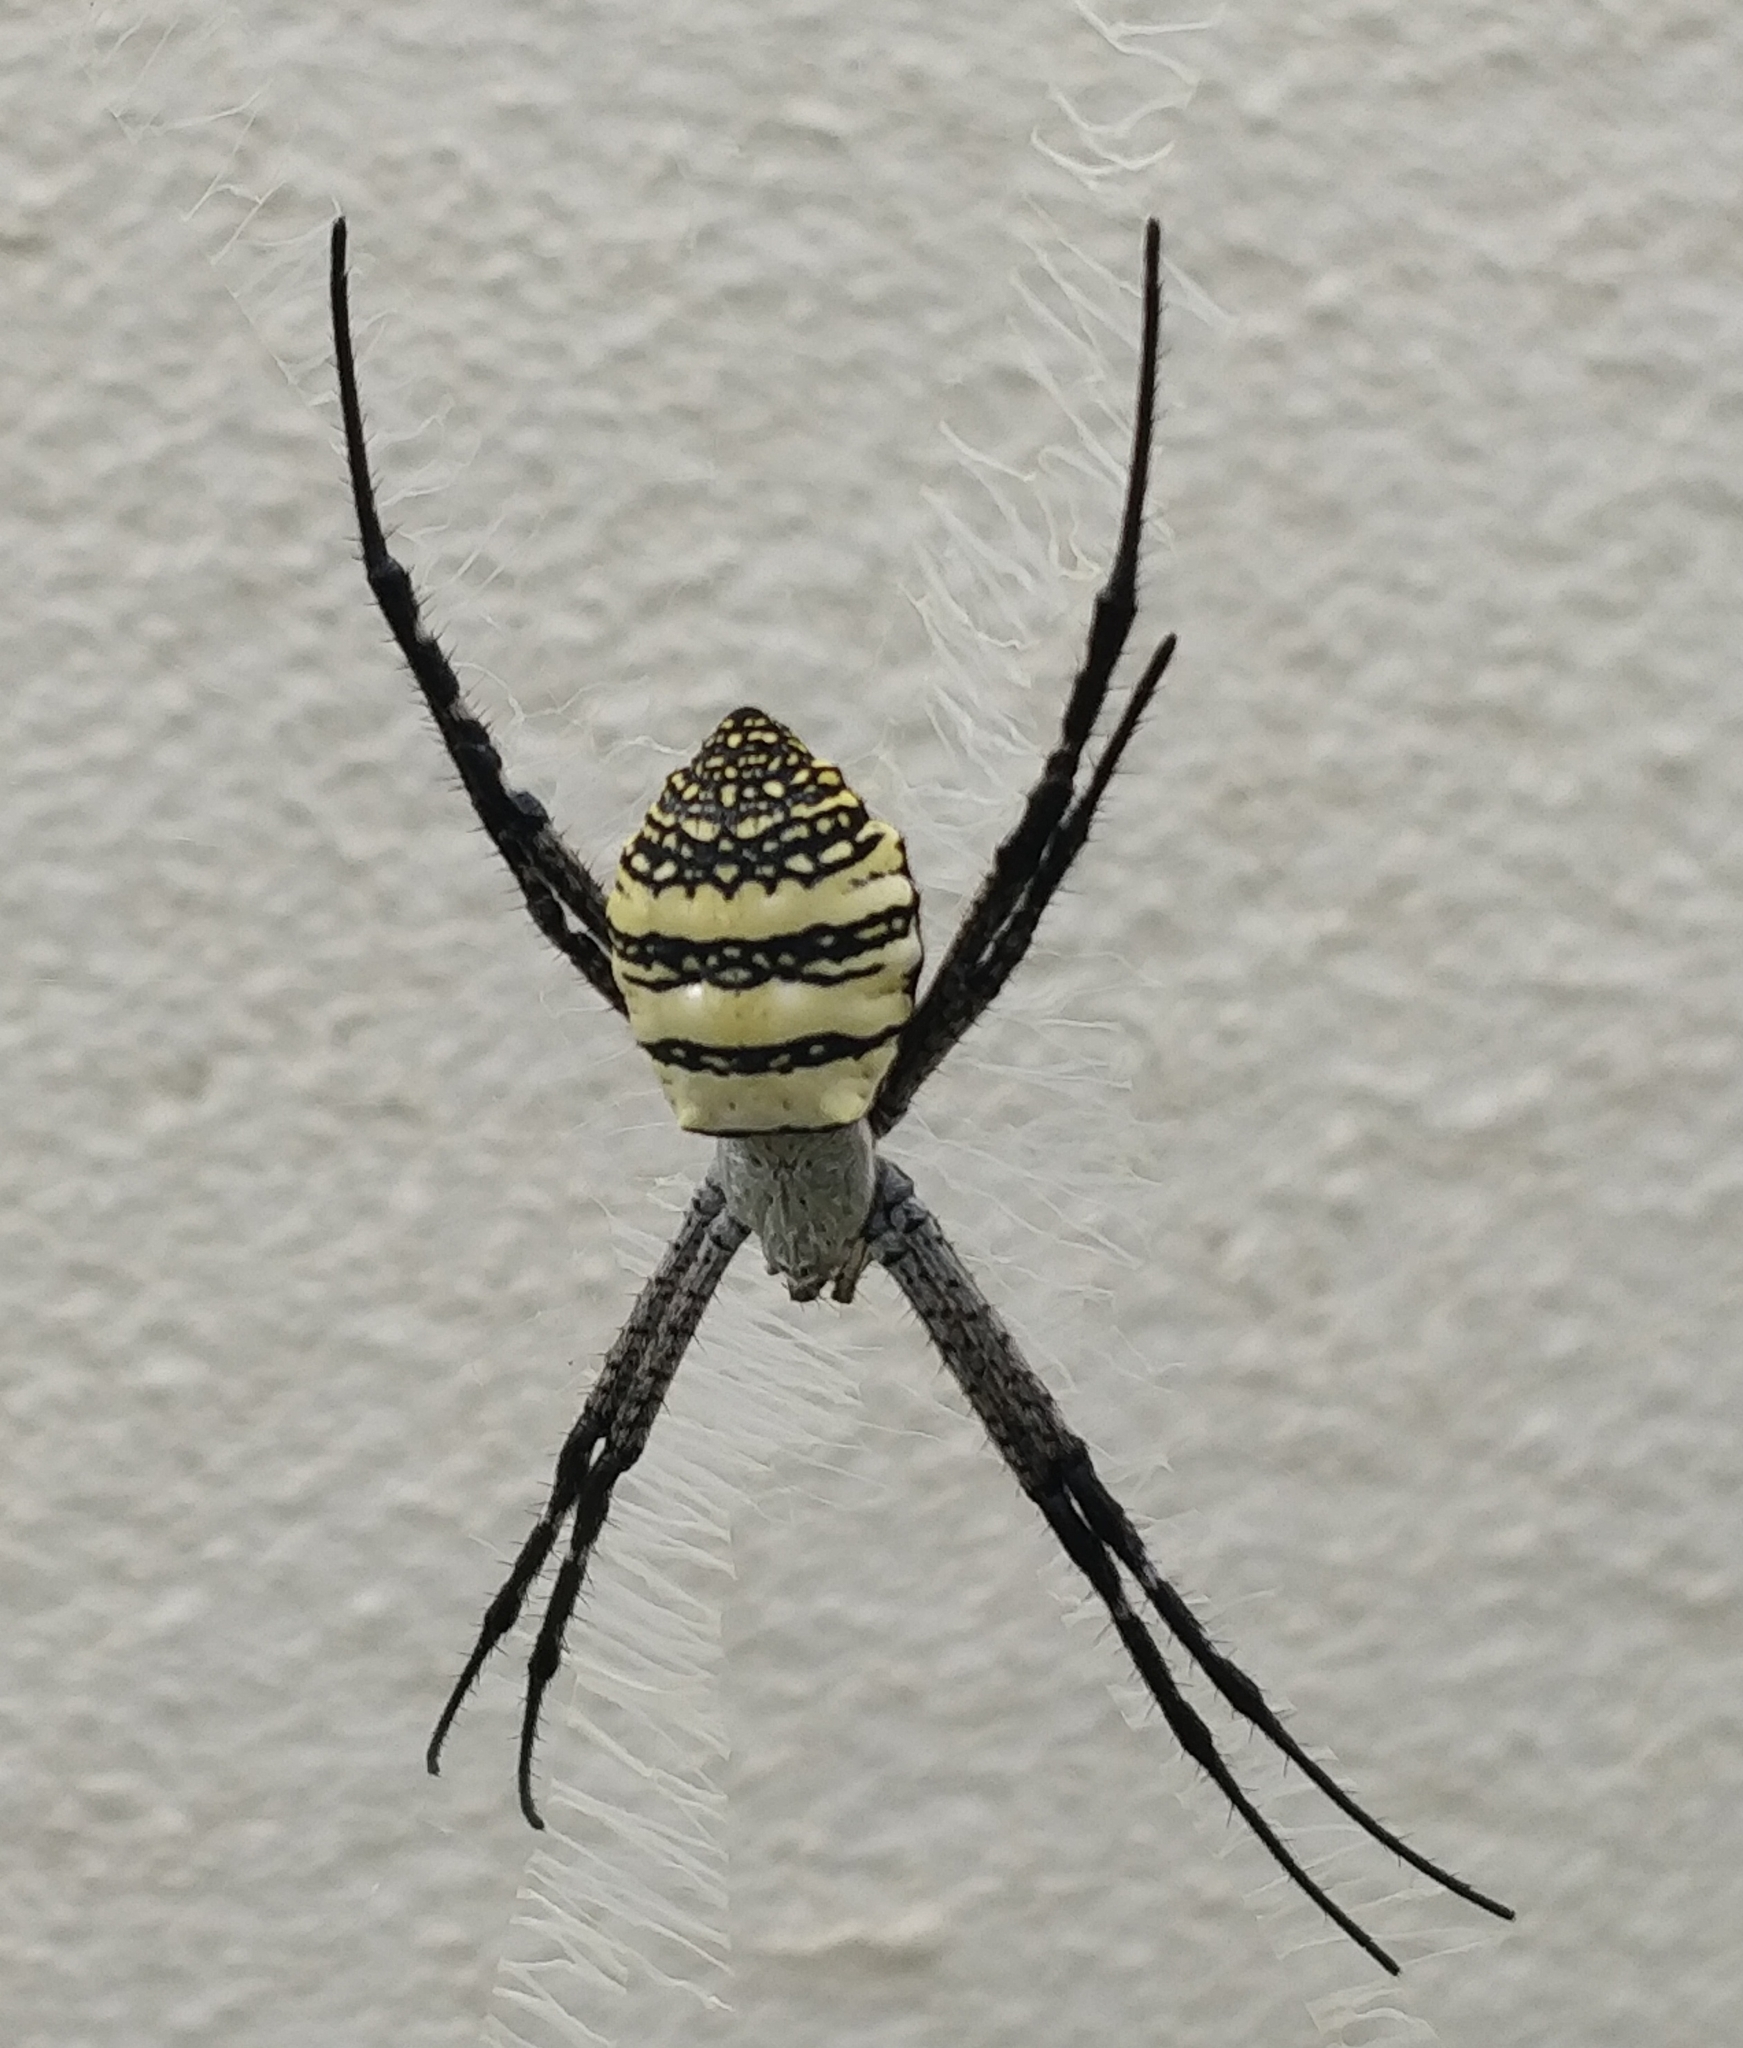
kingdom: Animalia
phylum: Arthropoda
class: Arachnida
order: Araneae
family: Araneidae
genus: Argiope
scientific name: Argiope aemula
